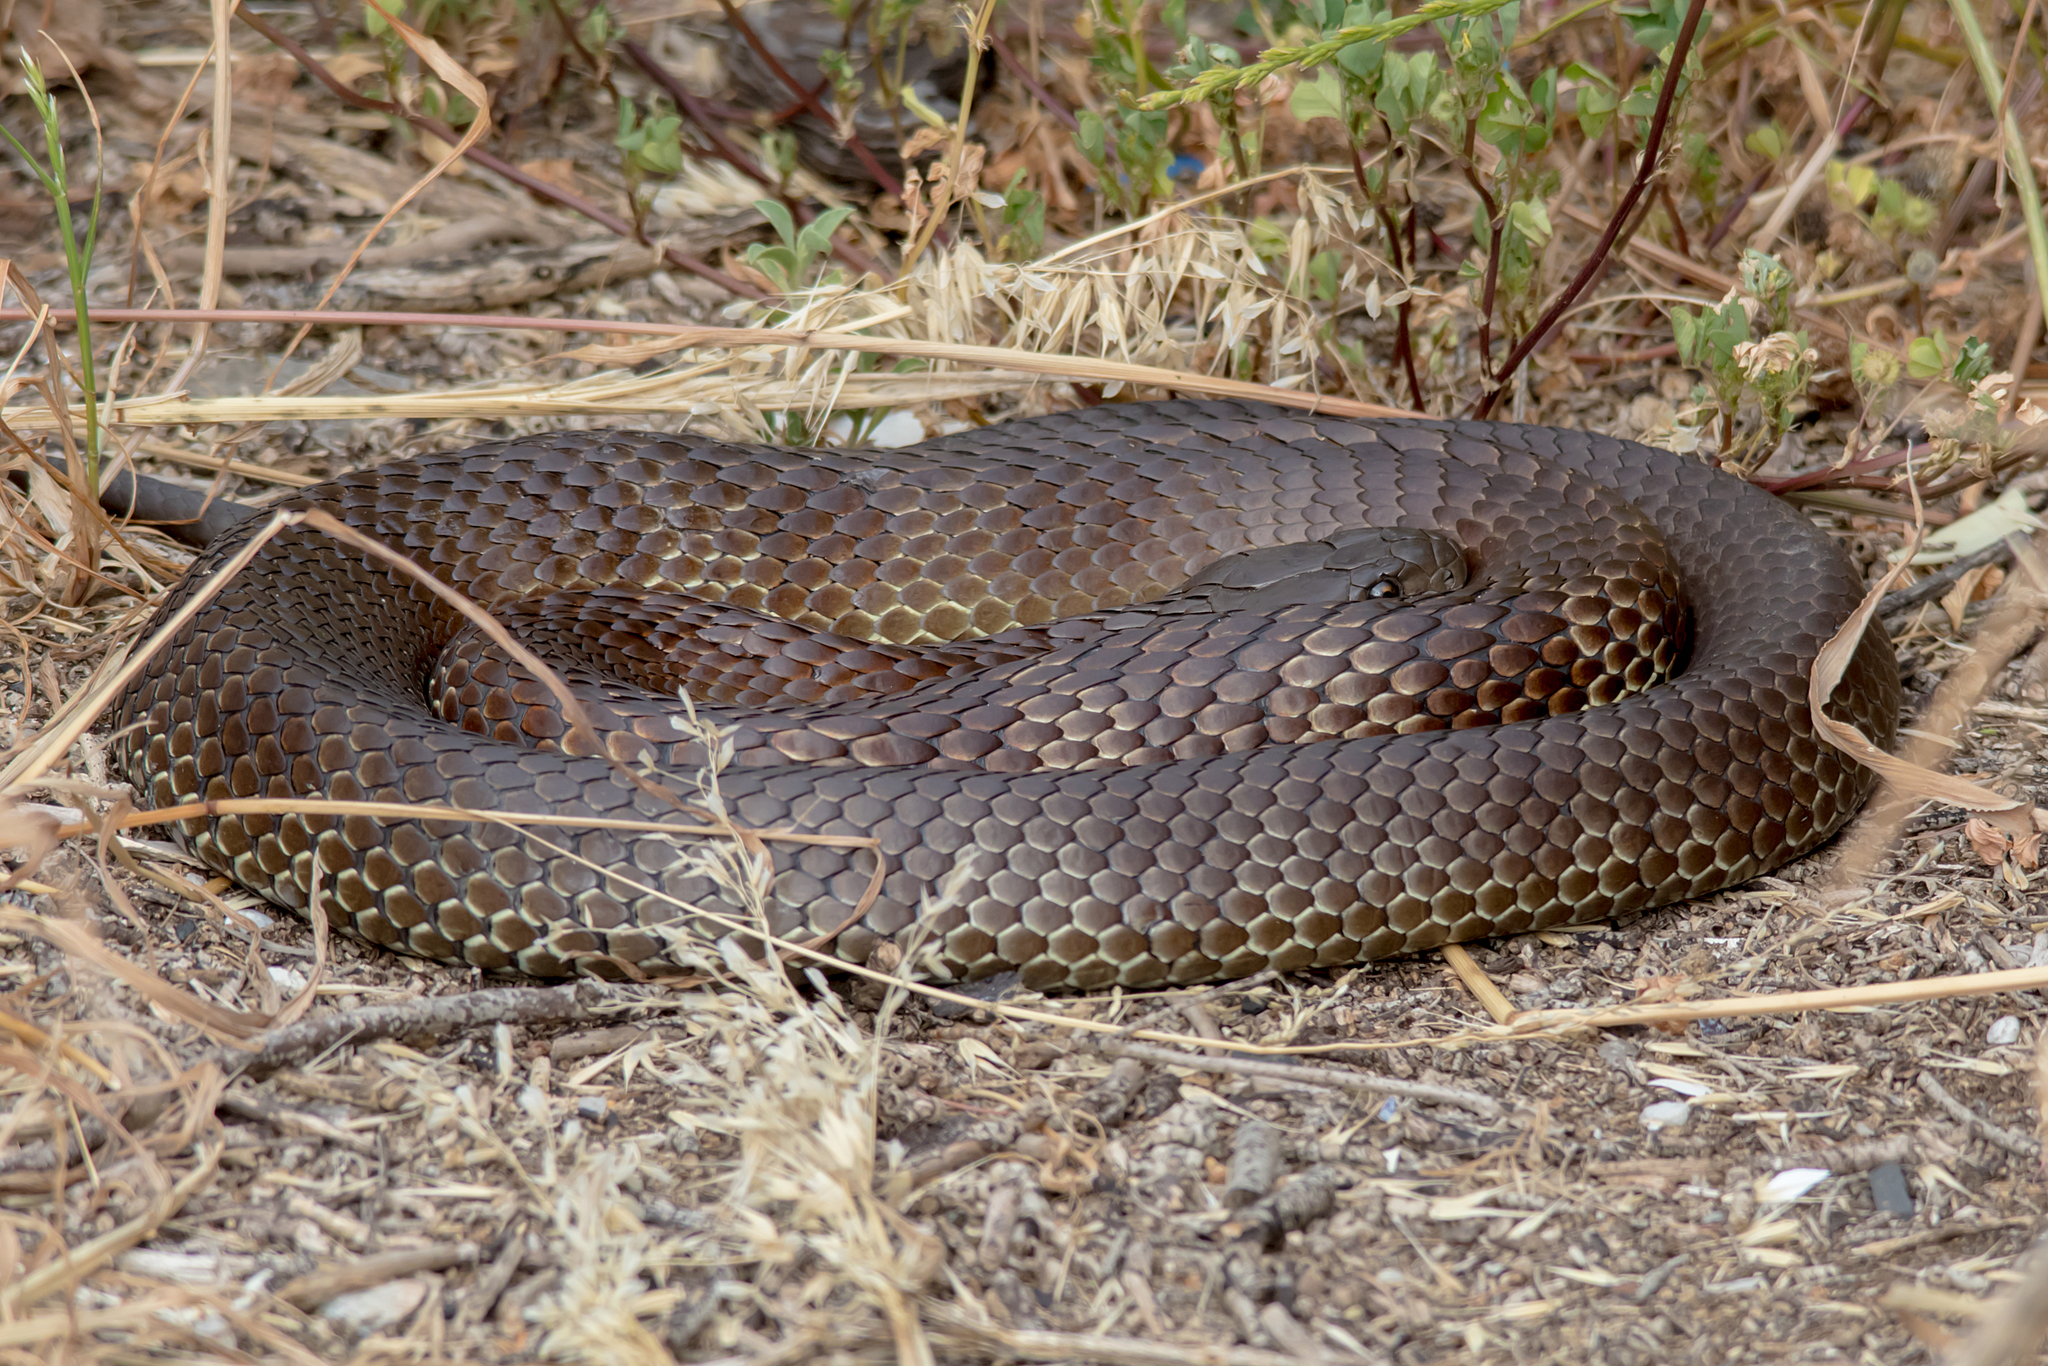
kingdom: Animalia
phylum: Chordata
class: Squamata
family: Elapidae
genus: Notechis
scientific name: Notechis scutatus
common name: Mainland tiger snake
